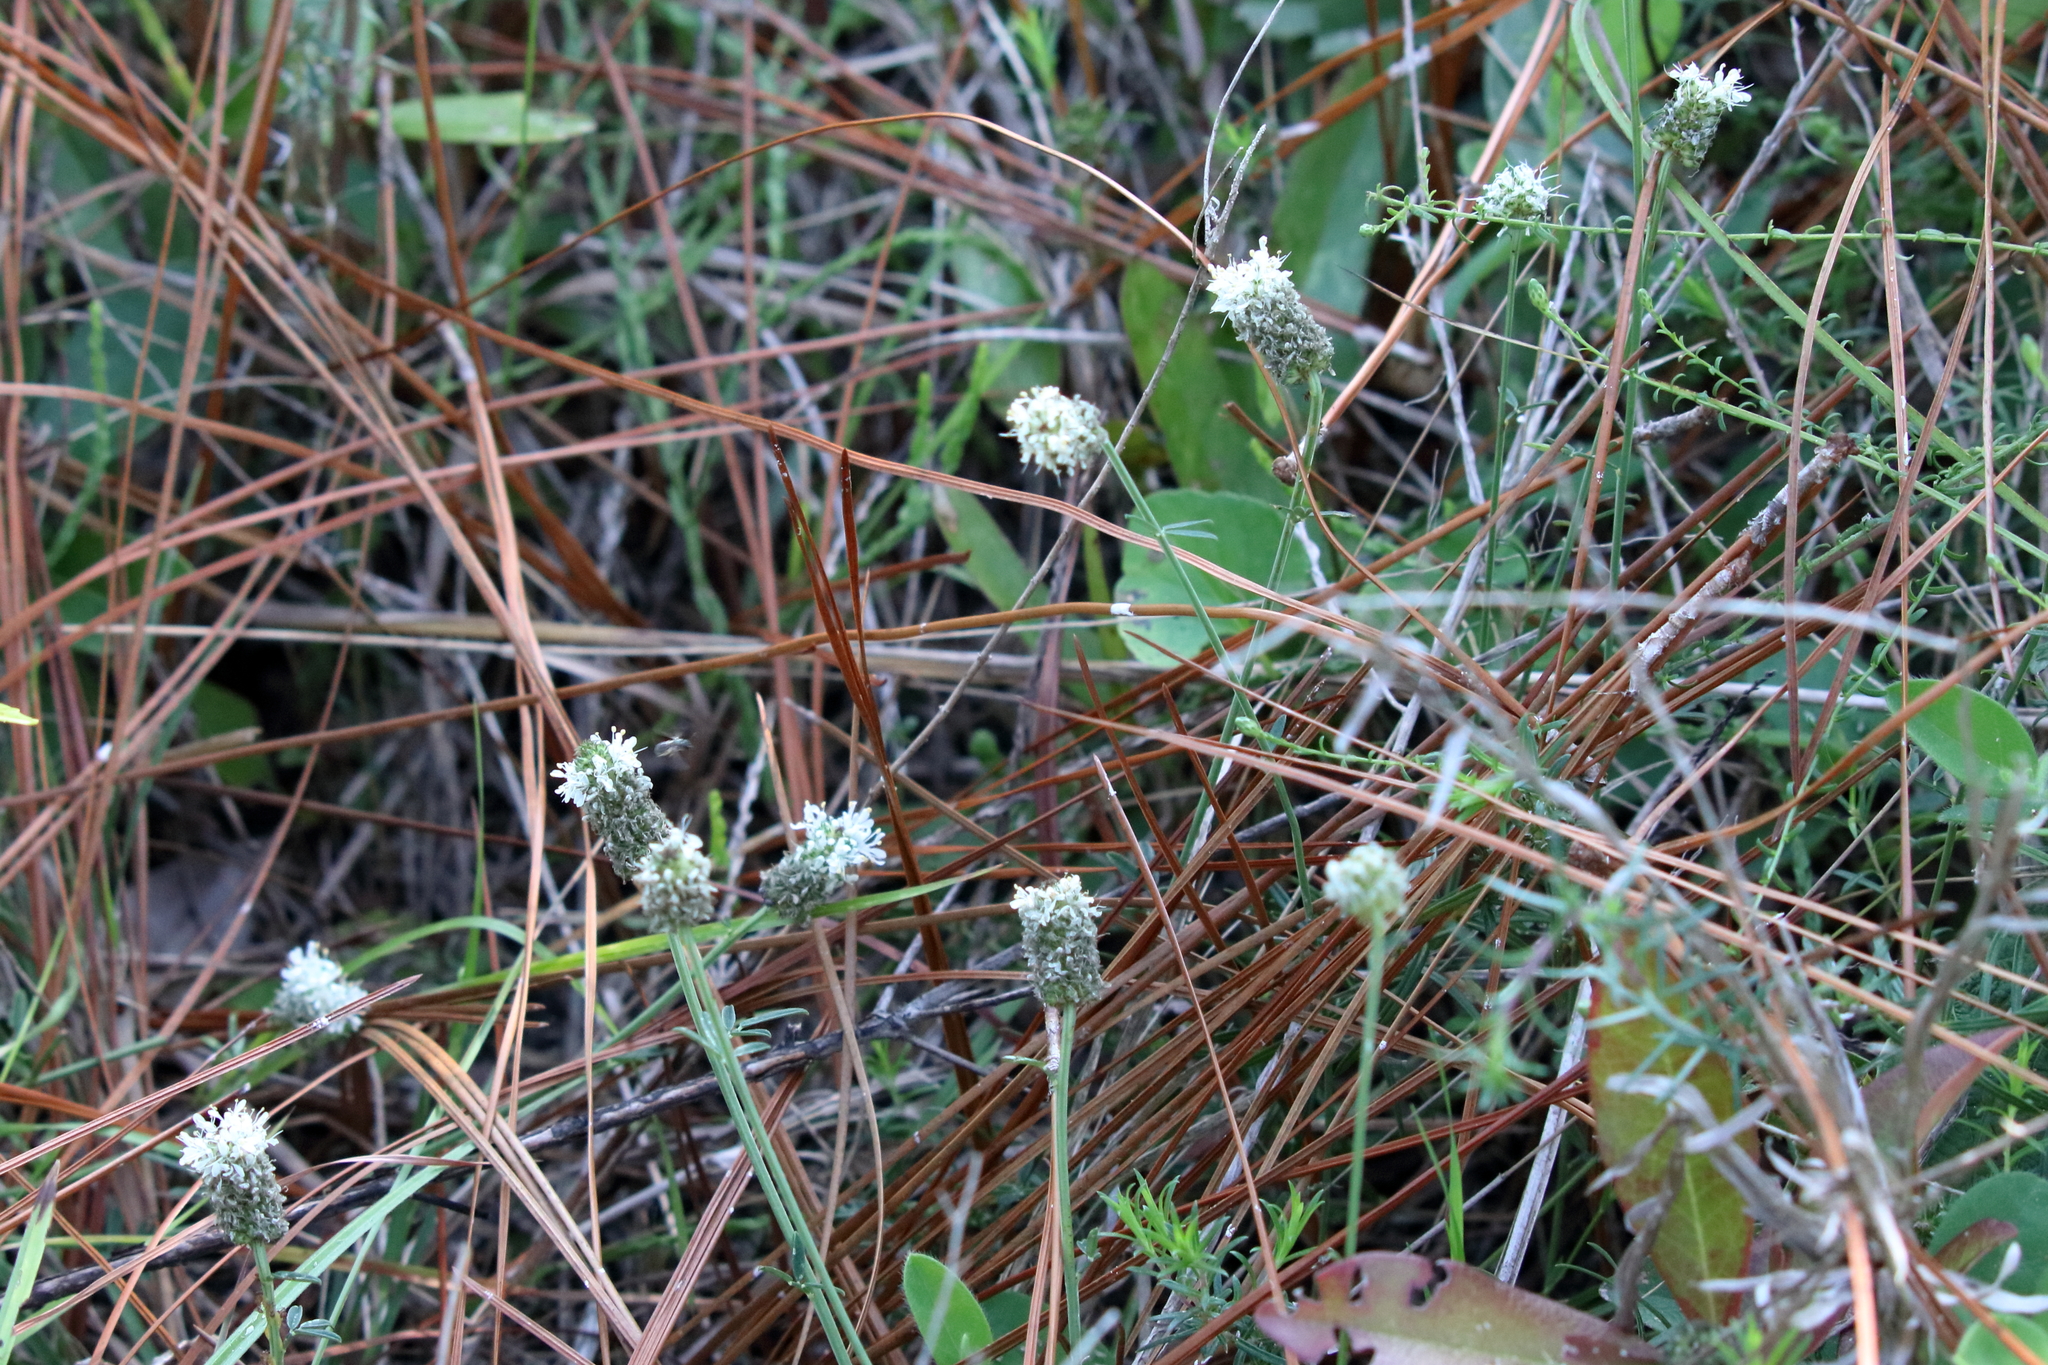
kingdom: Plantae
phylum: Tracheophyta
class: Magnoliopsida
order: Fabales
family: Fabaceae
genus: Dalea
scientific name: Dalea mountjoyae
